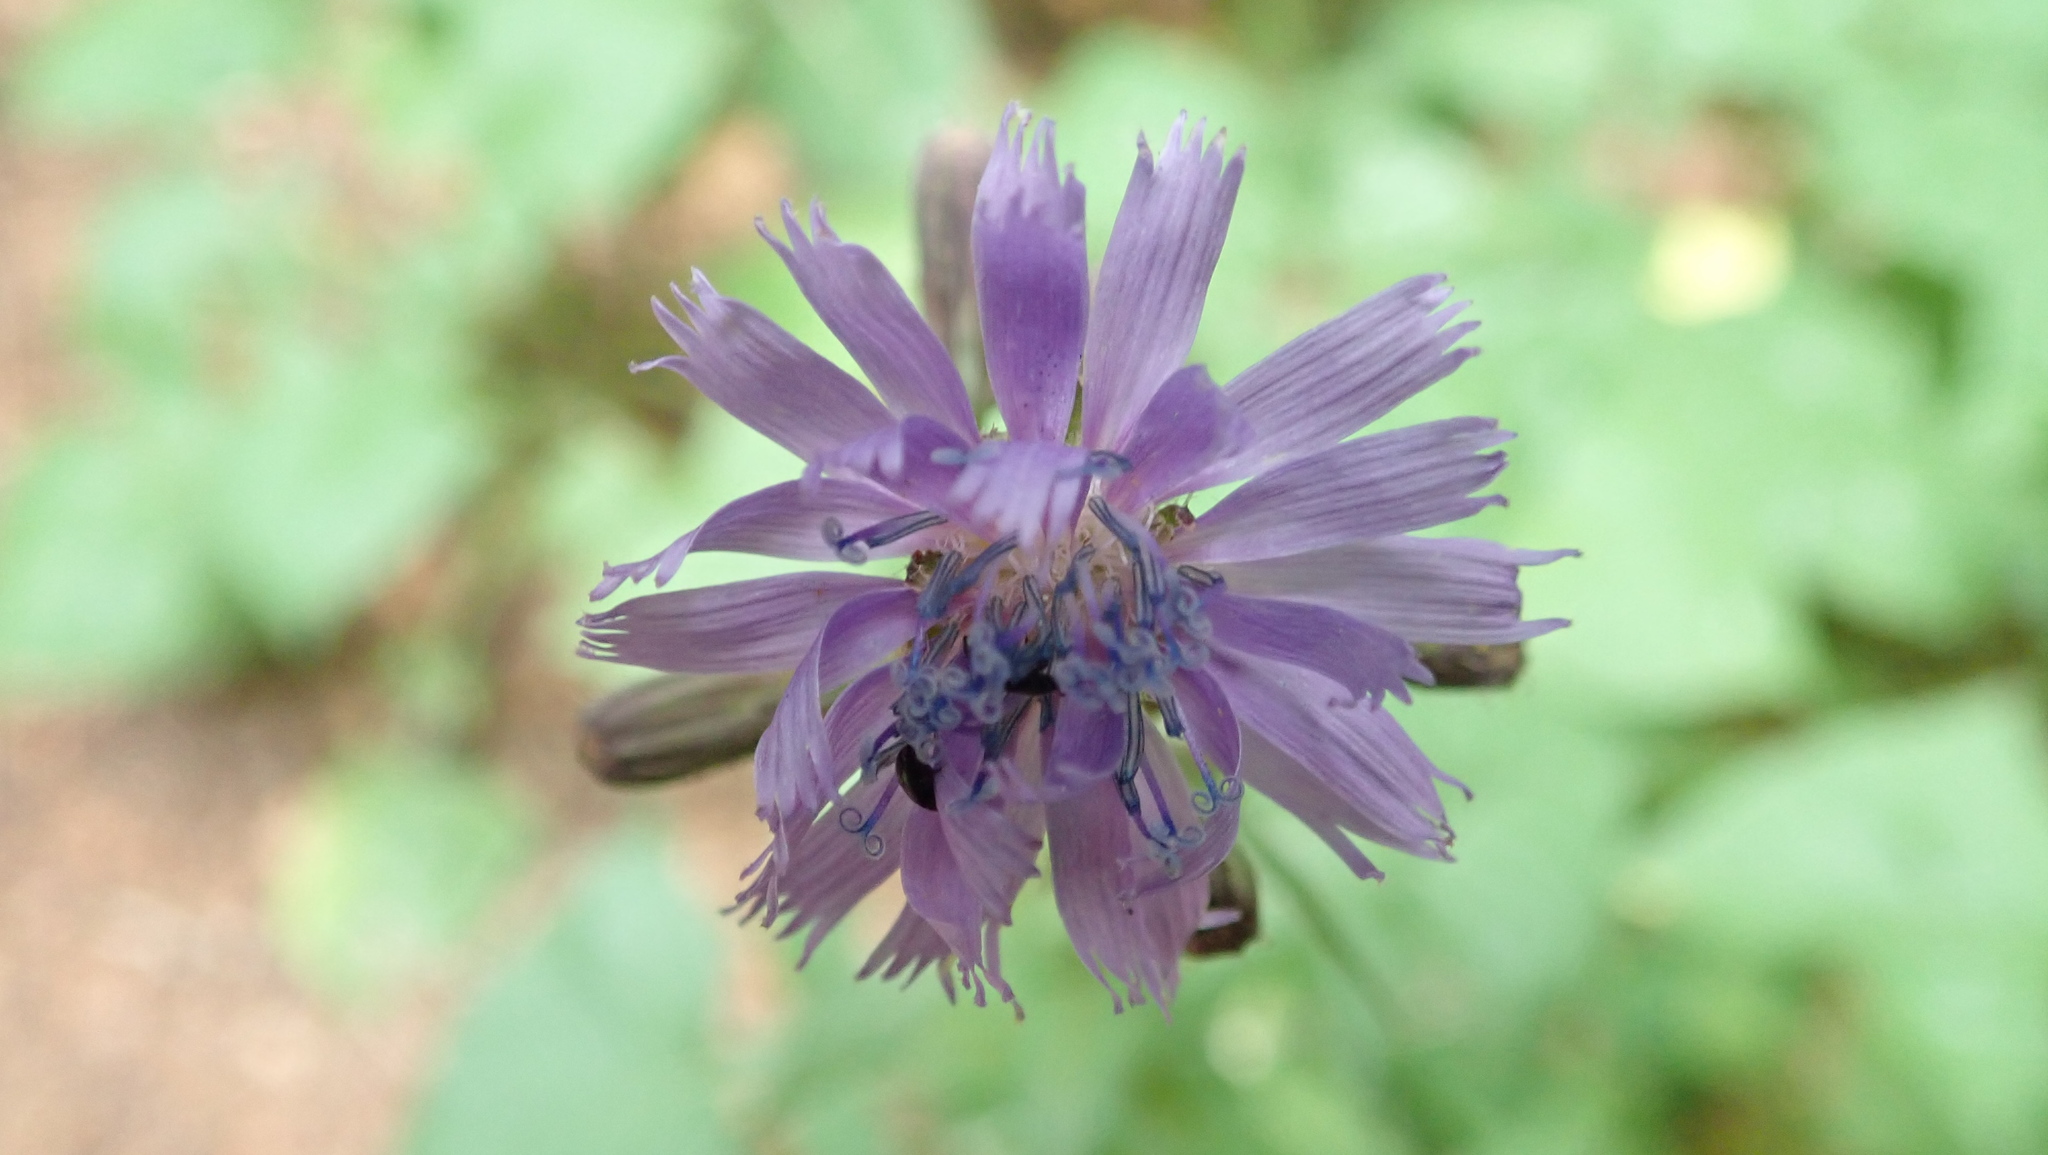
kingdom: Plantae
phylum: Tracheophyta
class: Magnoliopsida
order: Asterales
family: Asteraceae
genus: Cicerbita
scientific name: Cicerbita alpina
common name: Alpine blue-sow-thistle
